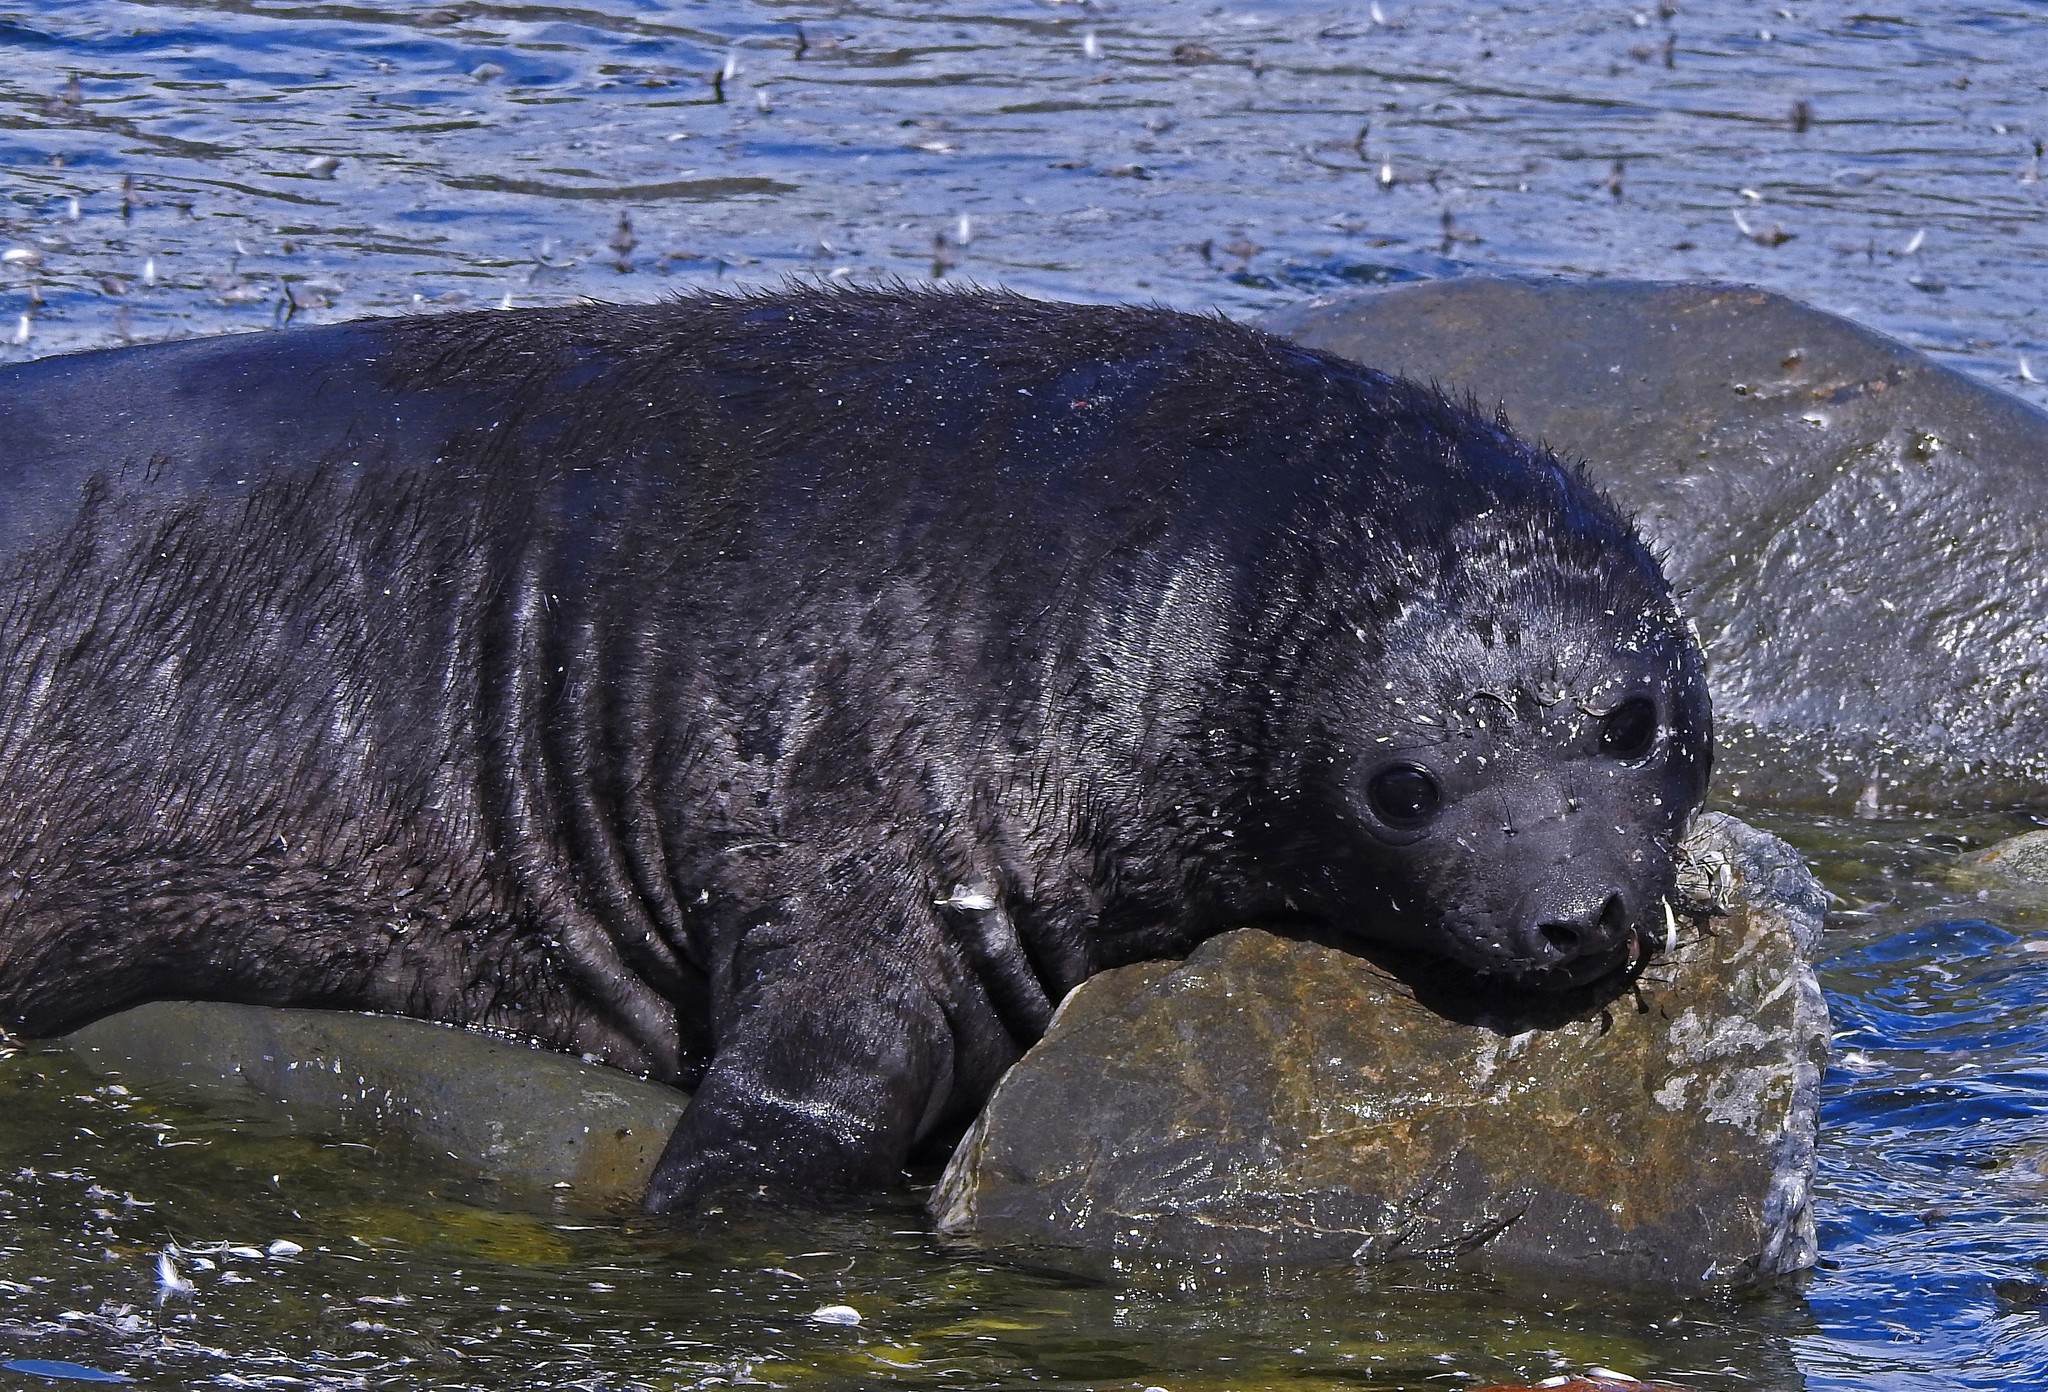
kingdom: Animalia
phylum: Chordata
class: Mammalia
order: Carnivora
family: Phocidae
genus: Mirounga
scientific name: Mirounga leonina
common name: Southern elephant seal
